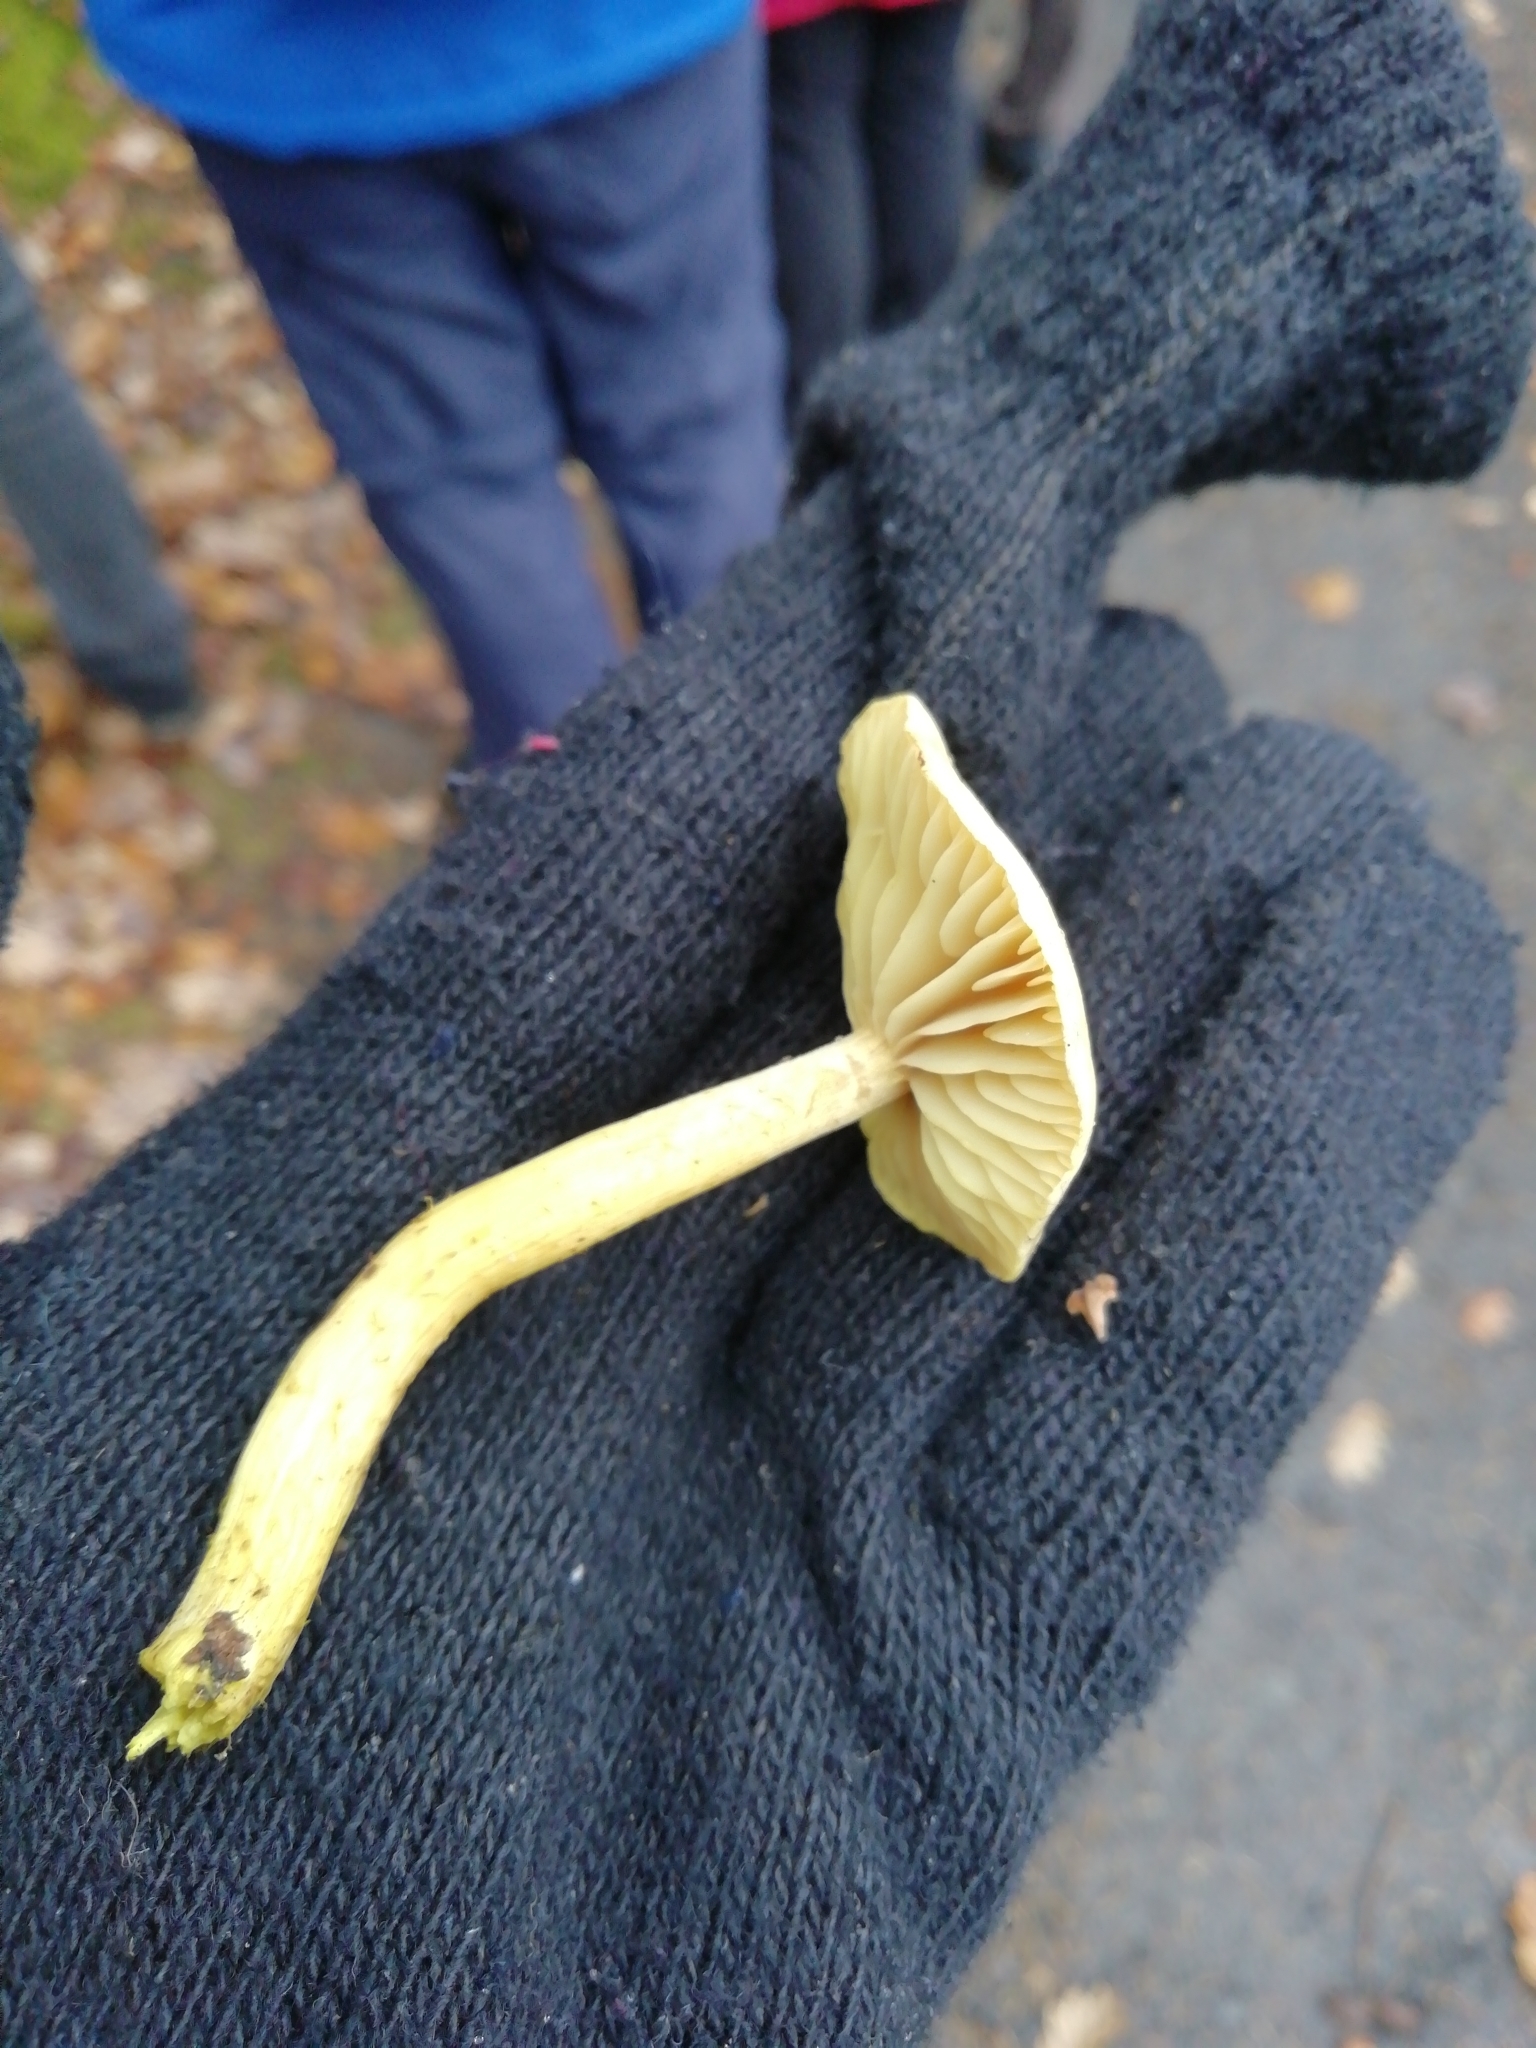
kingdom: Fungi
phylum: Basidiomycota
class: Agaricomycetes
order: Agaricales
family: Tricholomataceae
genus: Tricholoma
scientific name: Tricholoma sulphureum
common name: Stinky knight
